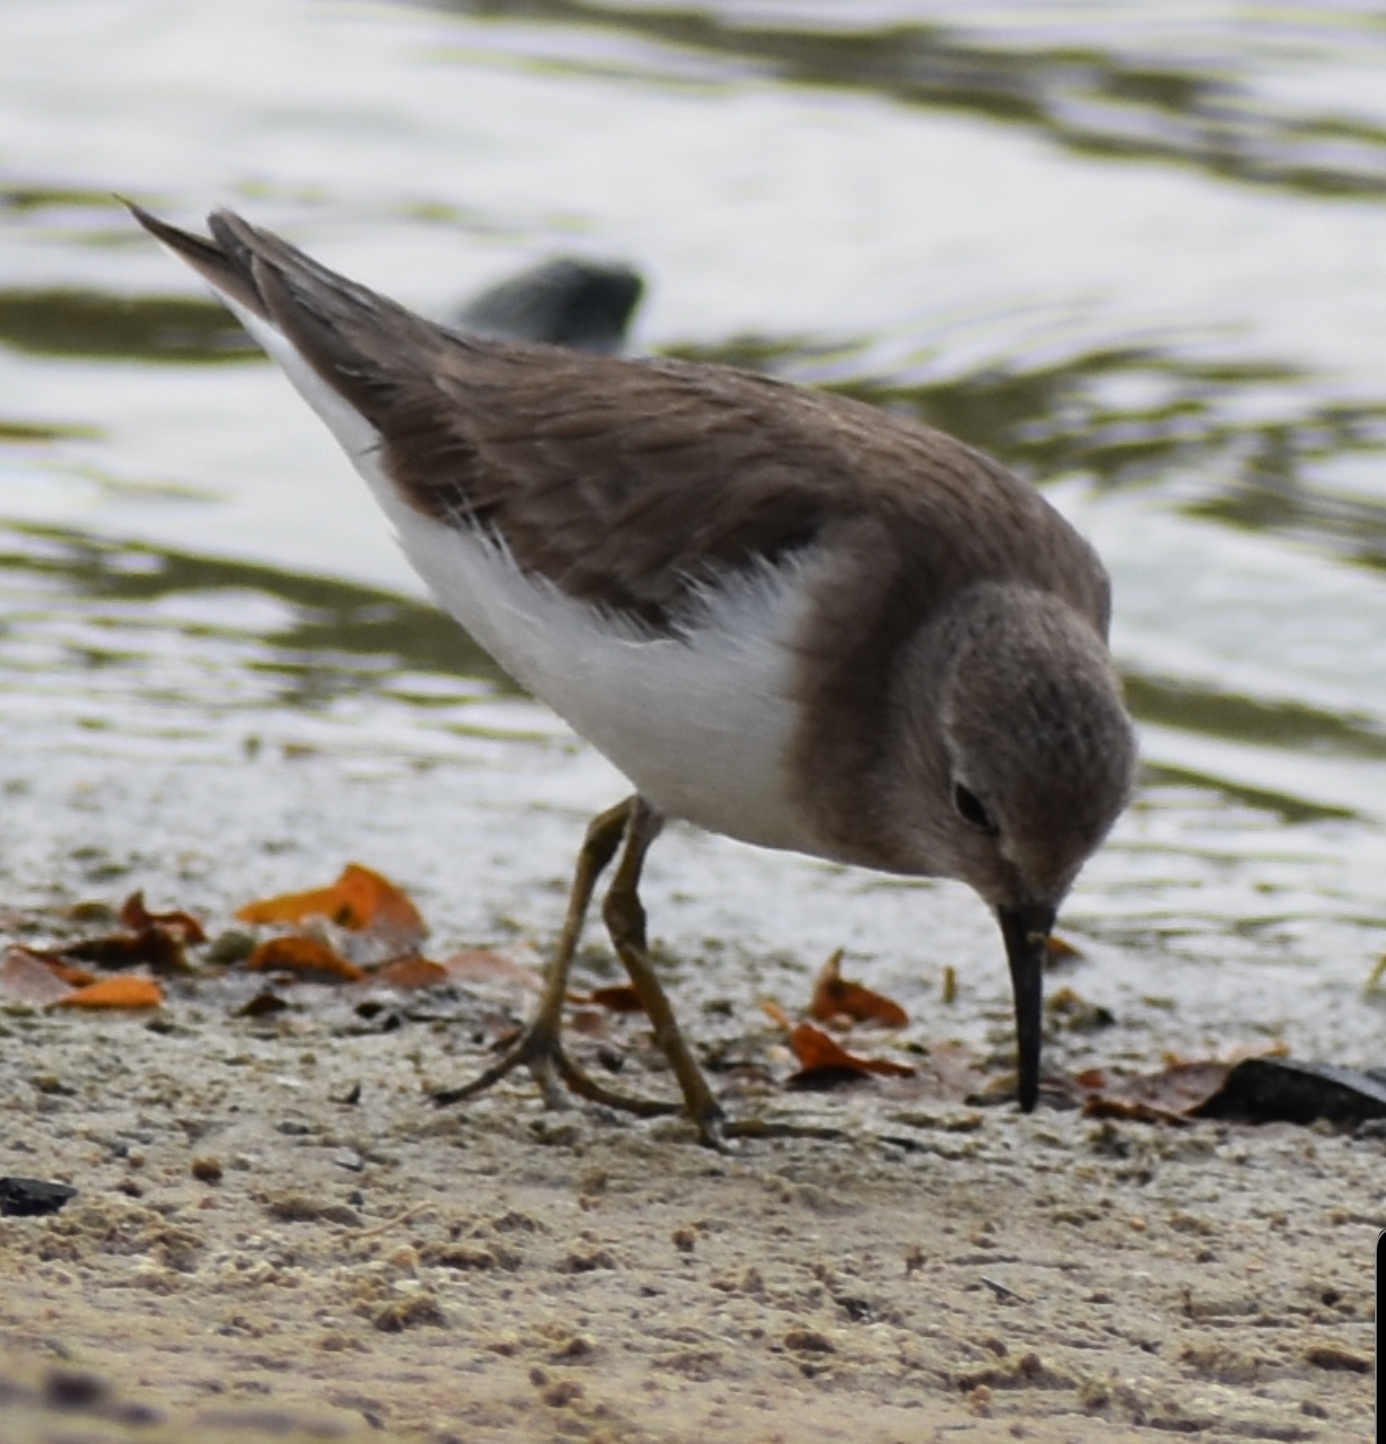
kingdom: Animalia
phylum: Chordata
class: Aves
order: Charadriiformes
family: Scolopacidae
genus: Actitis
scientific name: Actitis hypoleucos
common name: Common sandpiper
